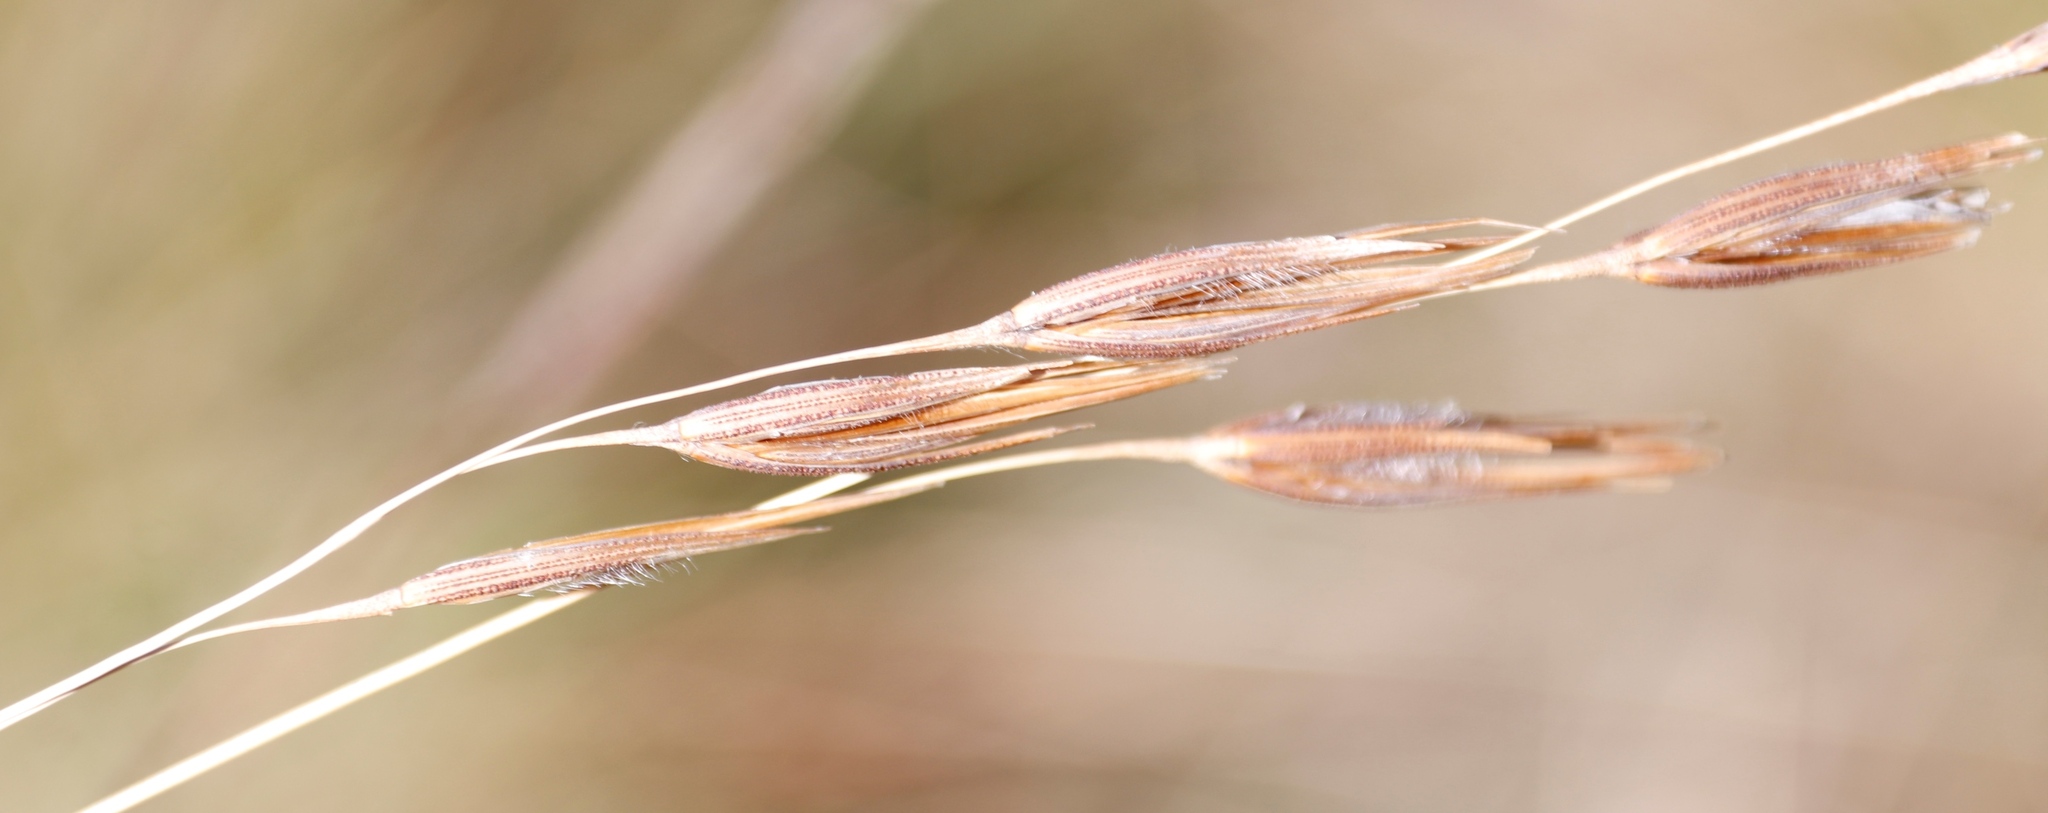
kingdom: Plantae
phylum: Tracheophyta
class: Liliopsida
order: Poales
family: Poaceae
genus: Tristachya
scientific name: Tristachya biseriata
